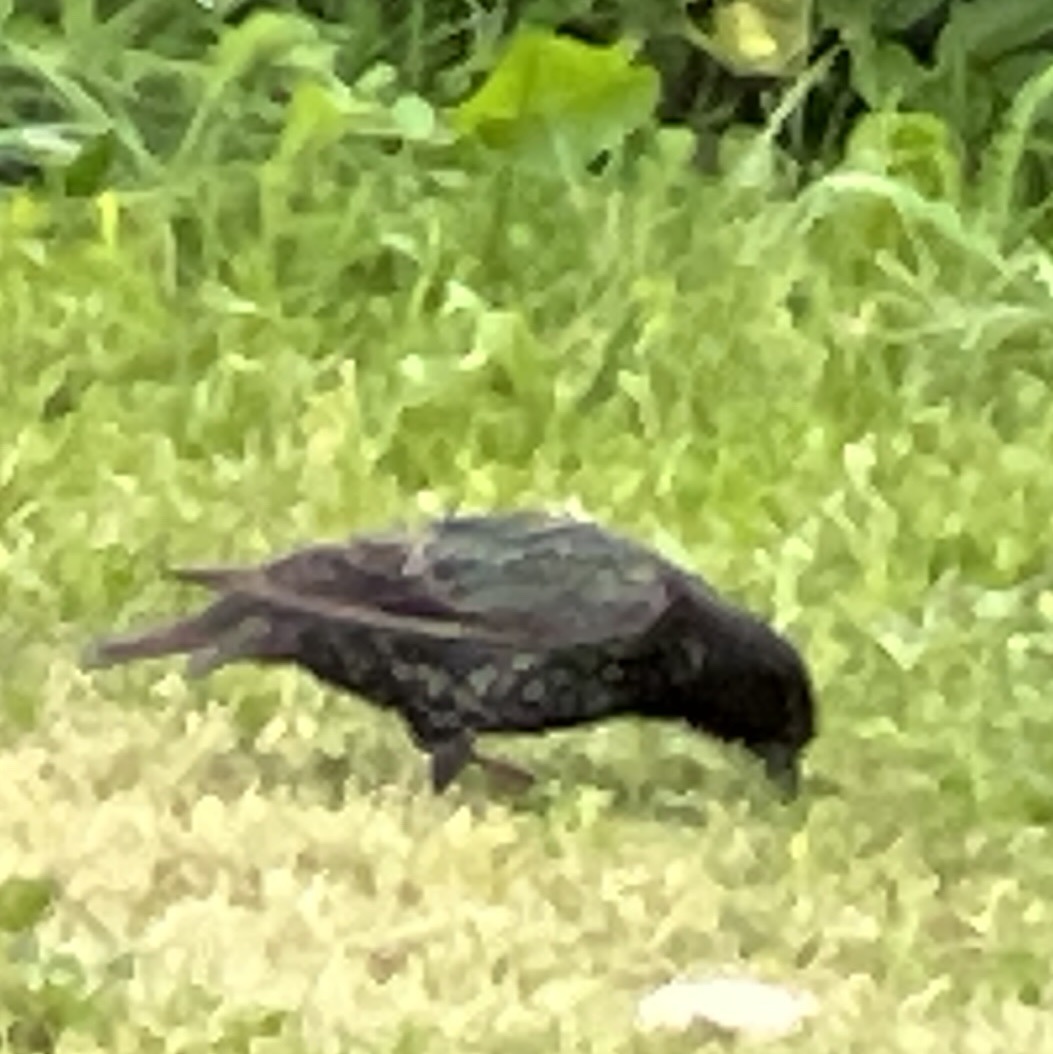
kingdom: Animalia
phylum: Chordata
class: Aves
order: Passeriformes
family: Sturnidae
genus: Sturnus
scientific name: Sturnus vulgaris
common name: Common starling
